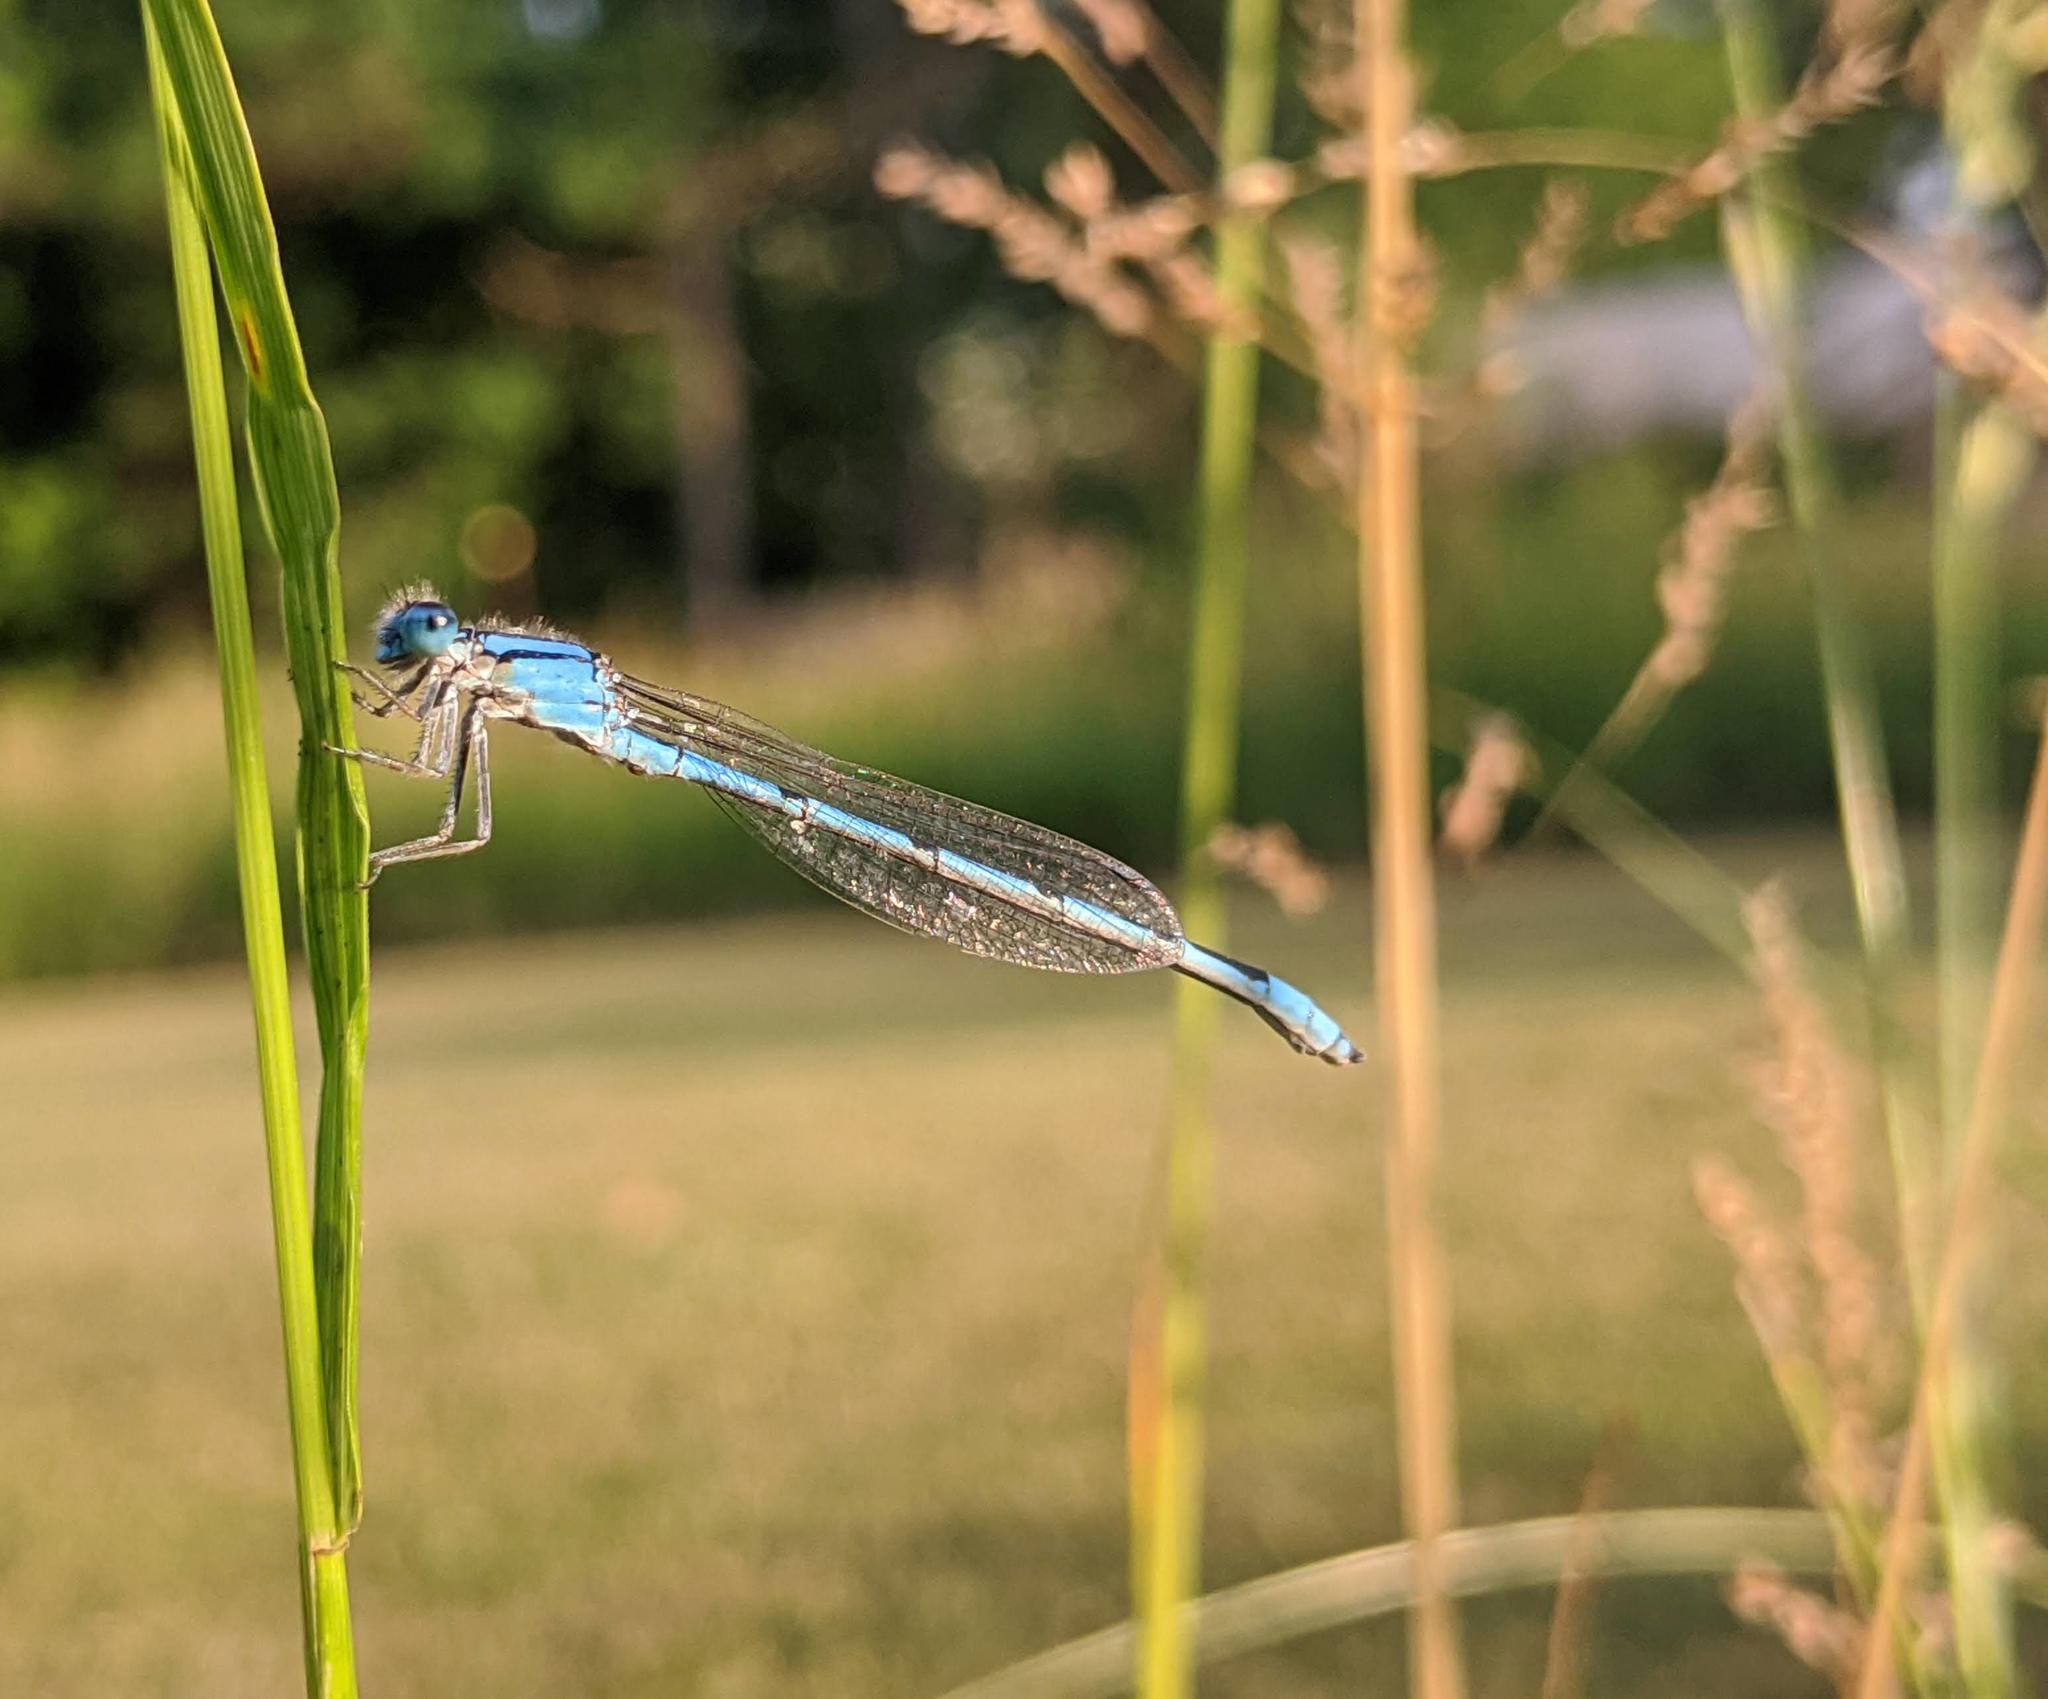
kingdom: Animalia
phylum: Arthropoda
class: Insecta
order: Odonata
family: Coenagrionidae
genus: Enallagma
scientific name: Enallagma civile
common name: Damselfly
